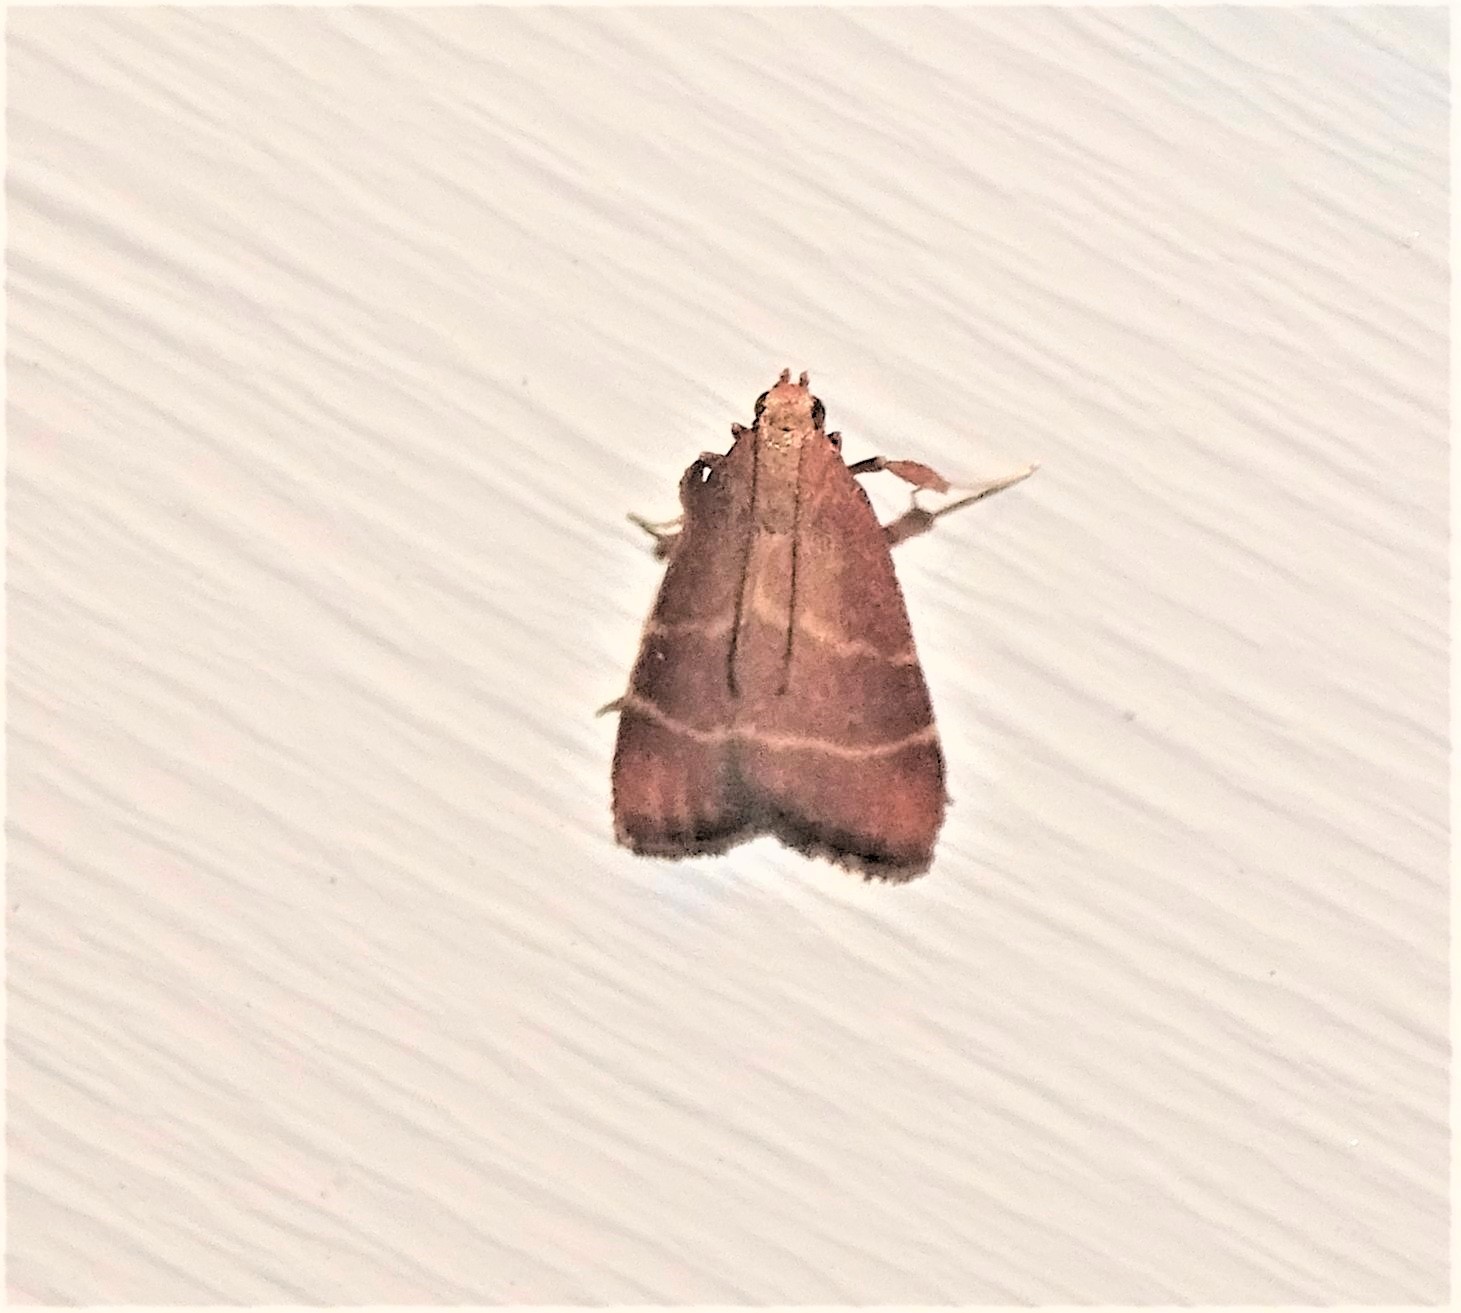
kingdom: Animalia
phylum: Arthropoda
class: Insecta
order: Lepidoptera
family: Pyralidae
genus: Arta
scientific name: Arta statalis
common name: Posturing arta moth
